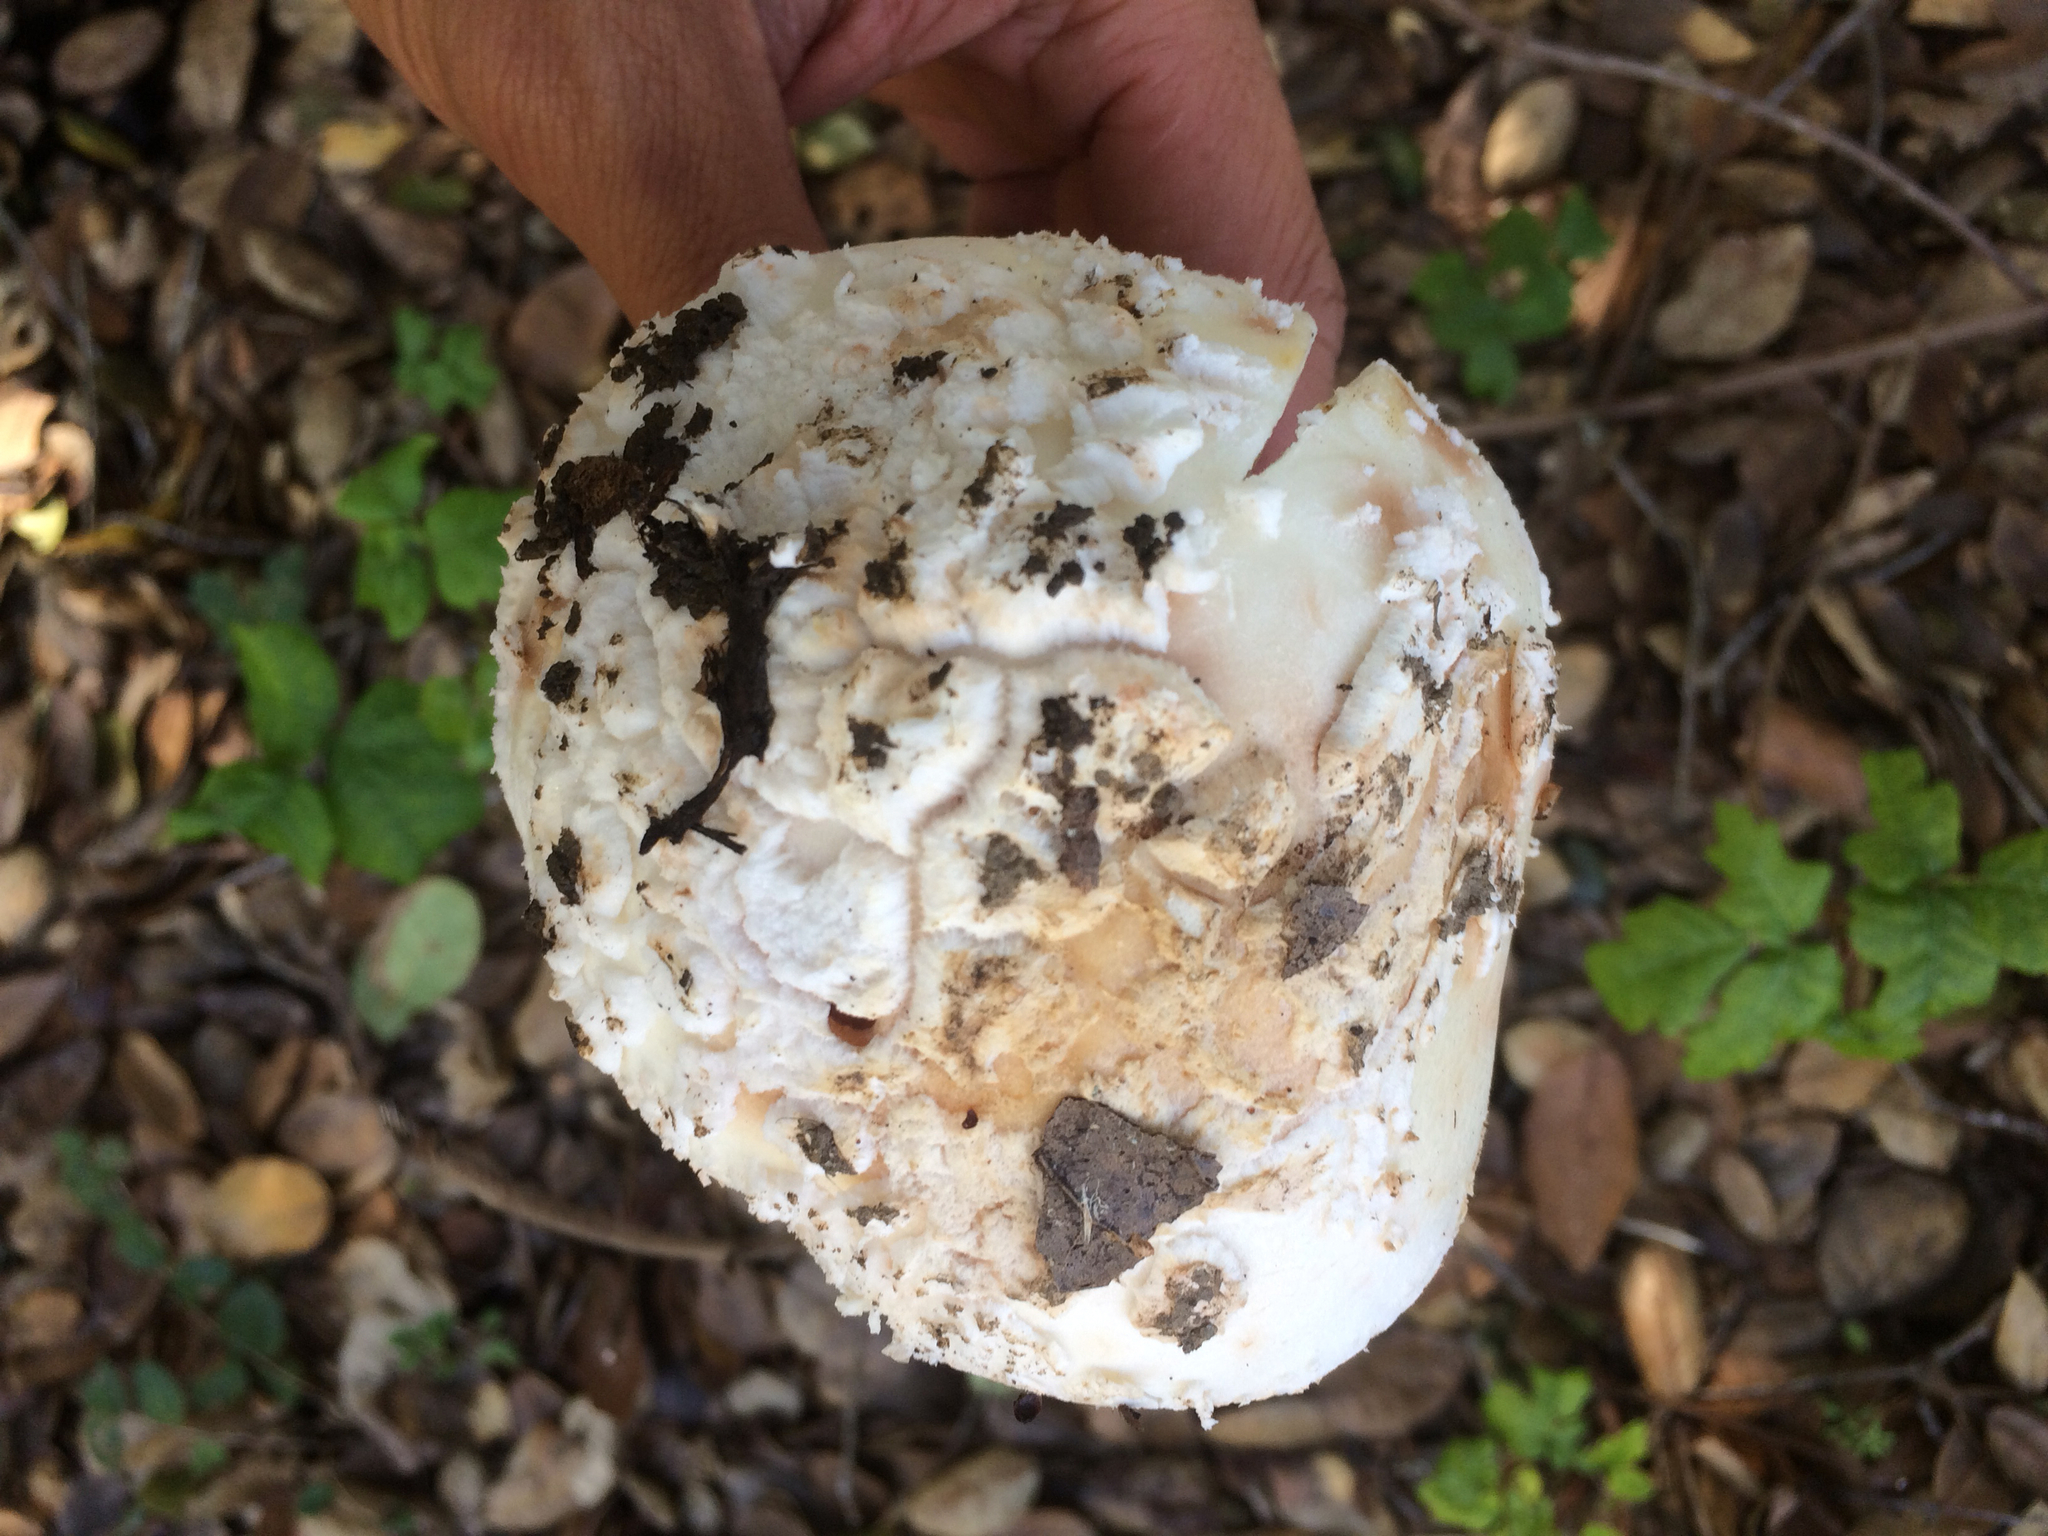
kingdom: Fungi
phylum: Basidiomycota
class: Agaricomycetes
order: Agaricales
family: Amanitaceae
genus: Amanita
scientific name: Amanita novinupta
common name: Blushing bride
